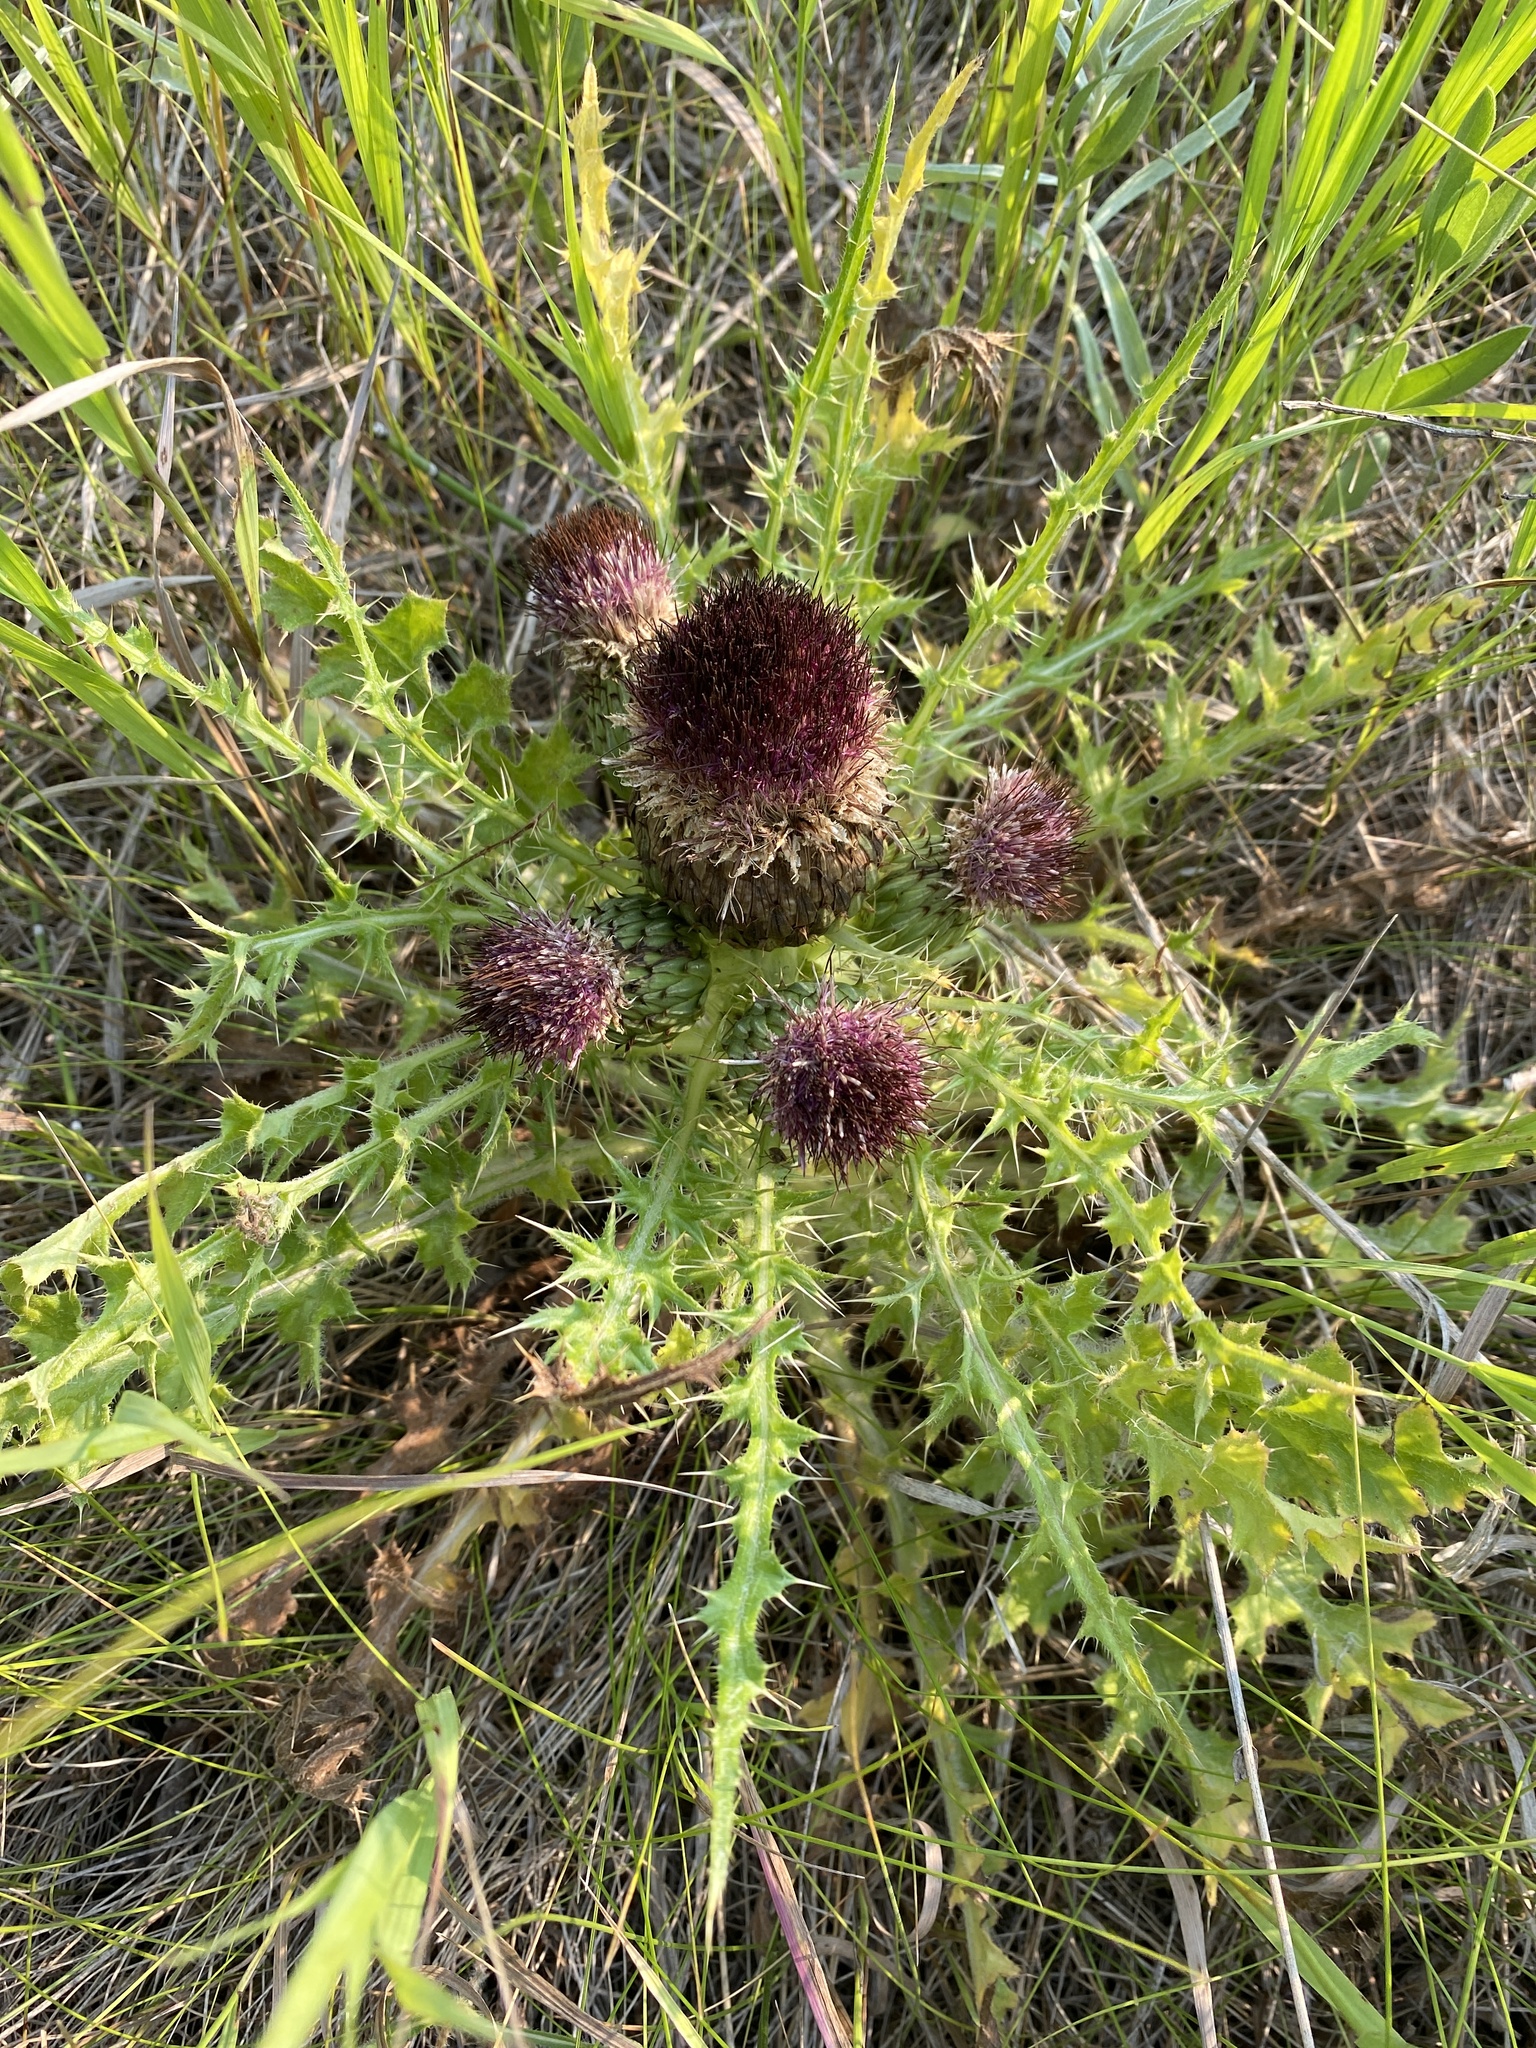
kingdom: Plantae
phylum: Tracheophyta
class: Magnoliopsida
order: Asterales
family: Asteraceae
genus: Cirsium
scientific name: Cirsium drummondii
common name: Drummond's thistle
